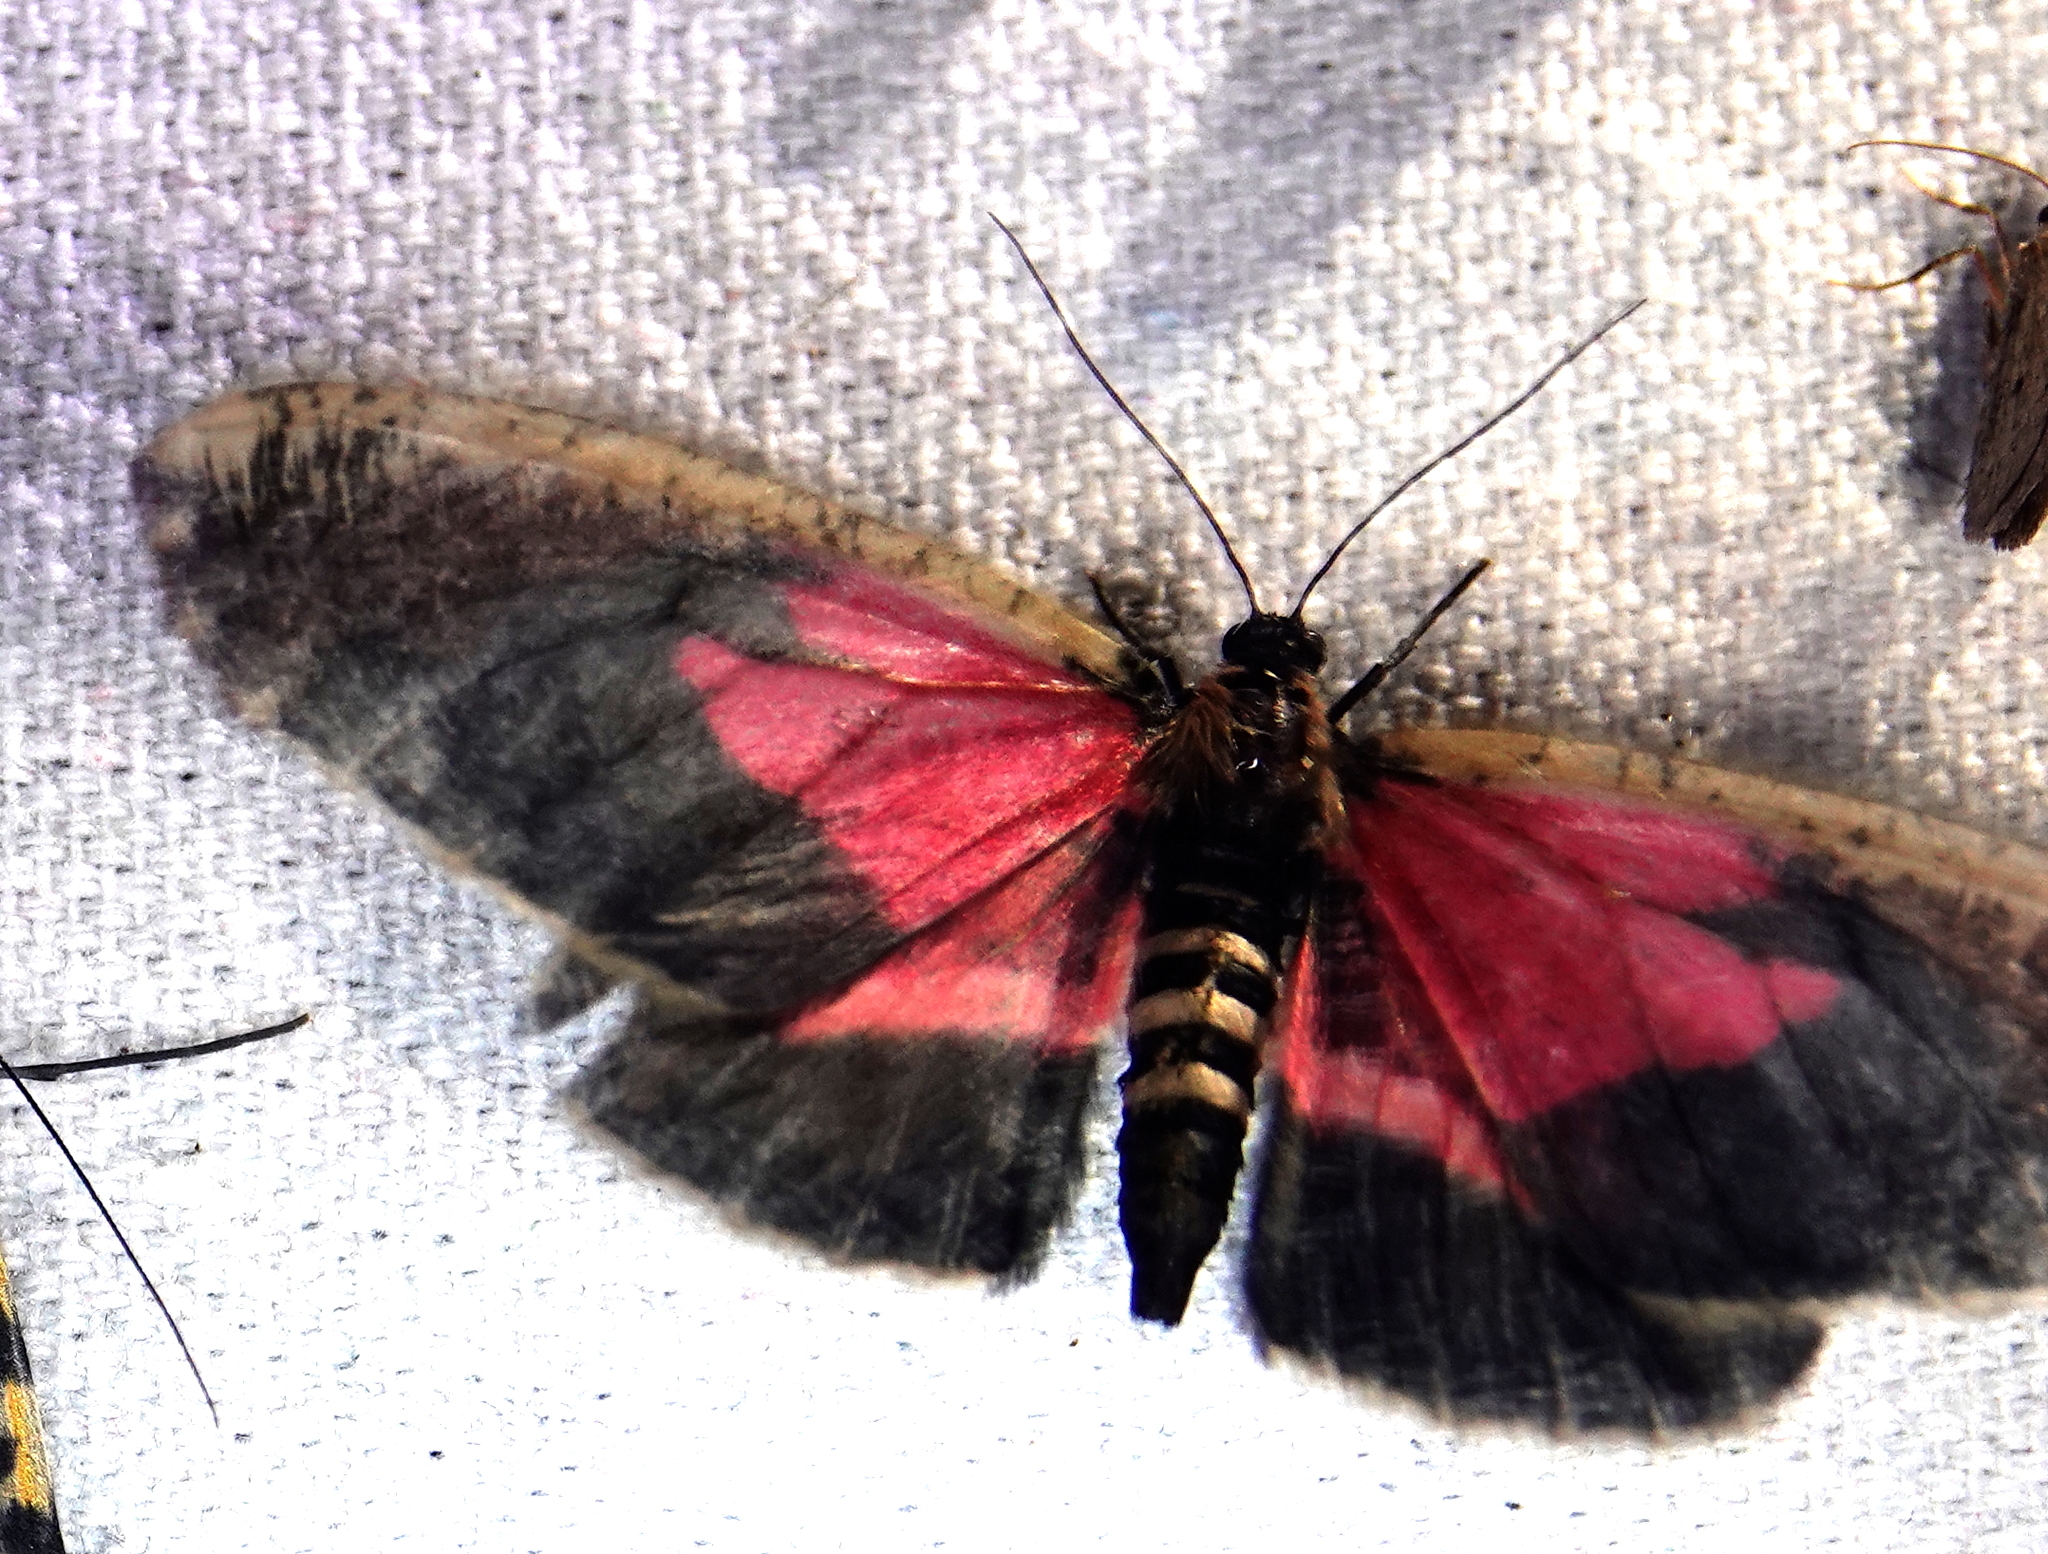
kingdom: Animalia
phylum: Arthropoda
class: Insecta
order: Lepidoptera
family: Geometridae
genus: Callipia
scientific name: Callipia sihvoneni
